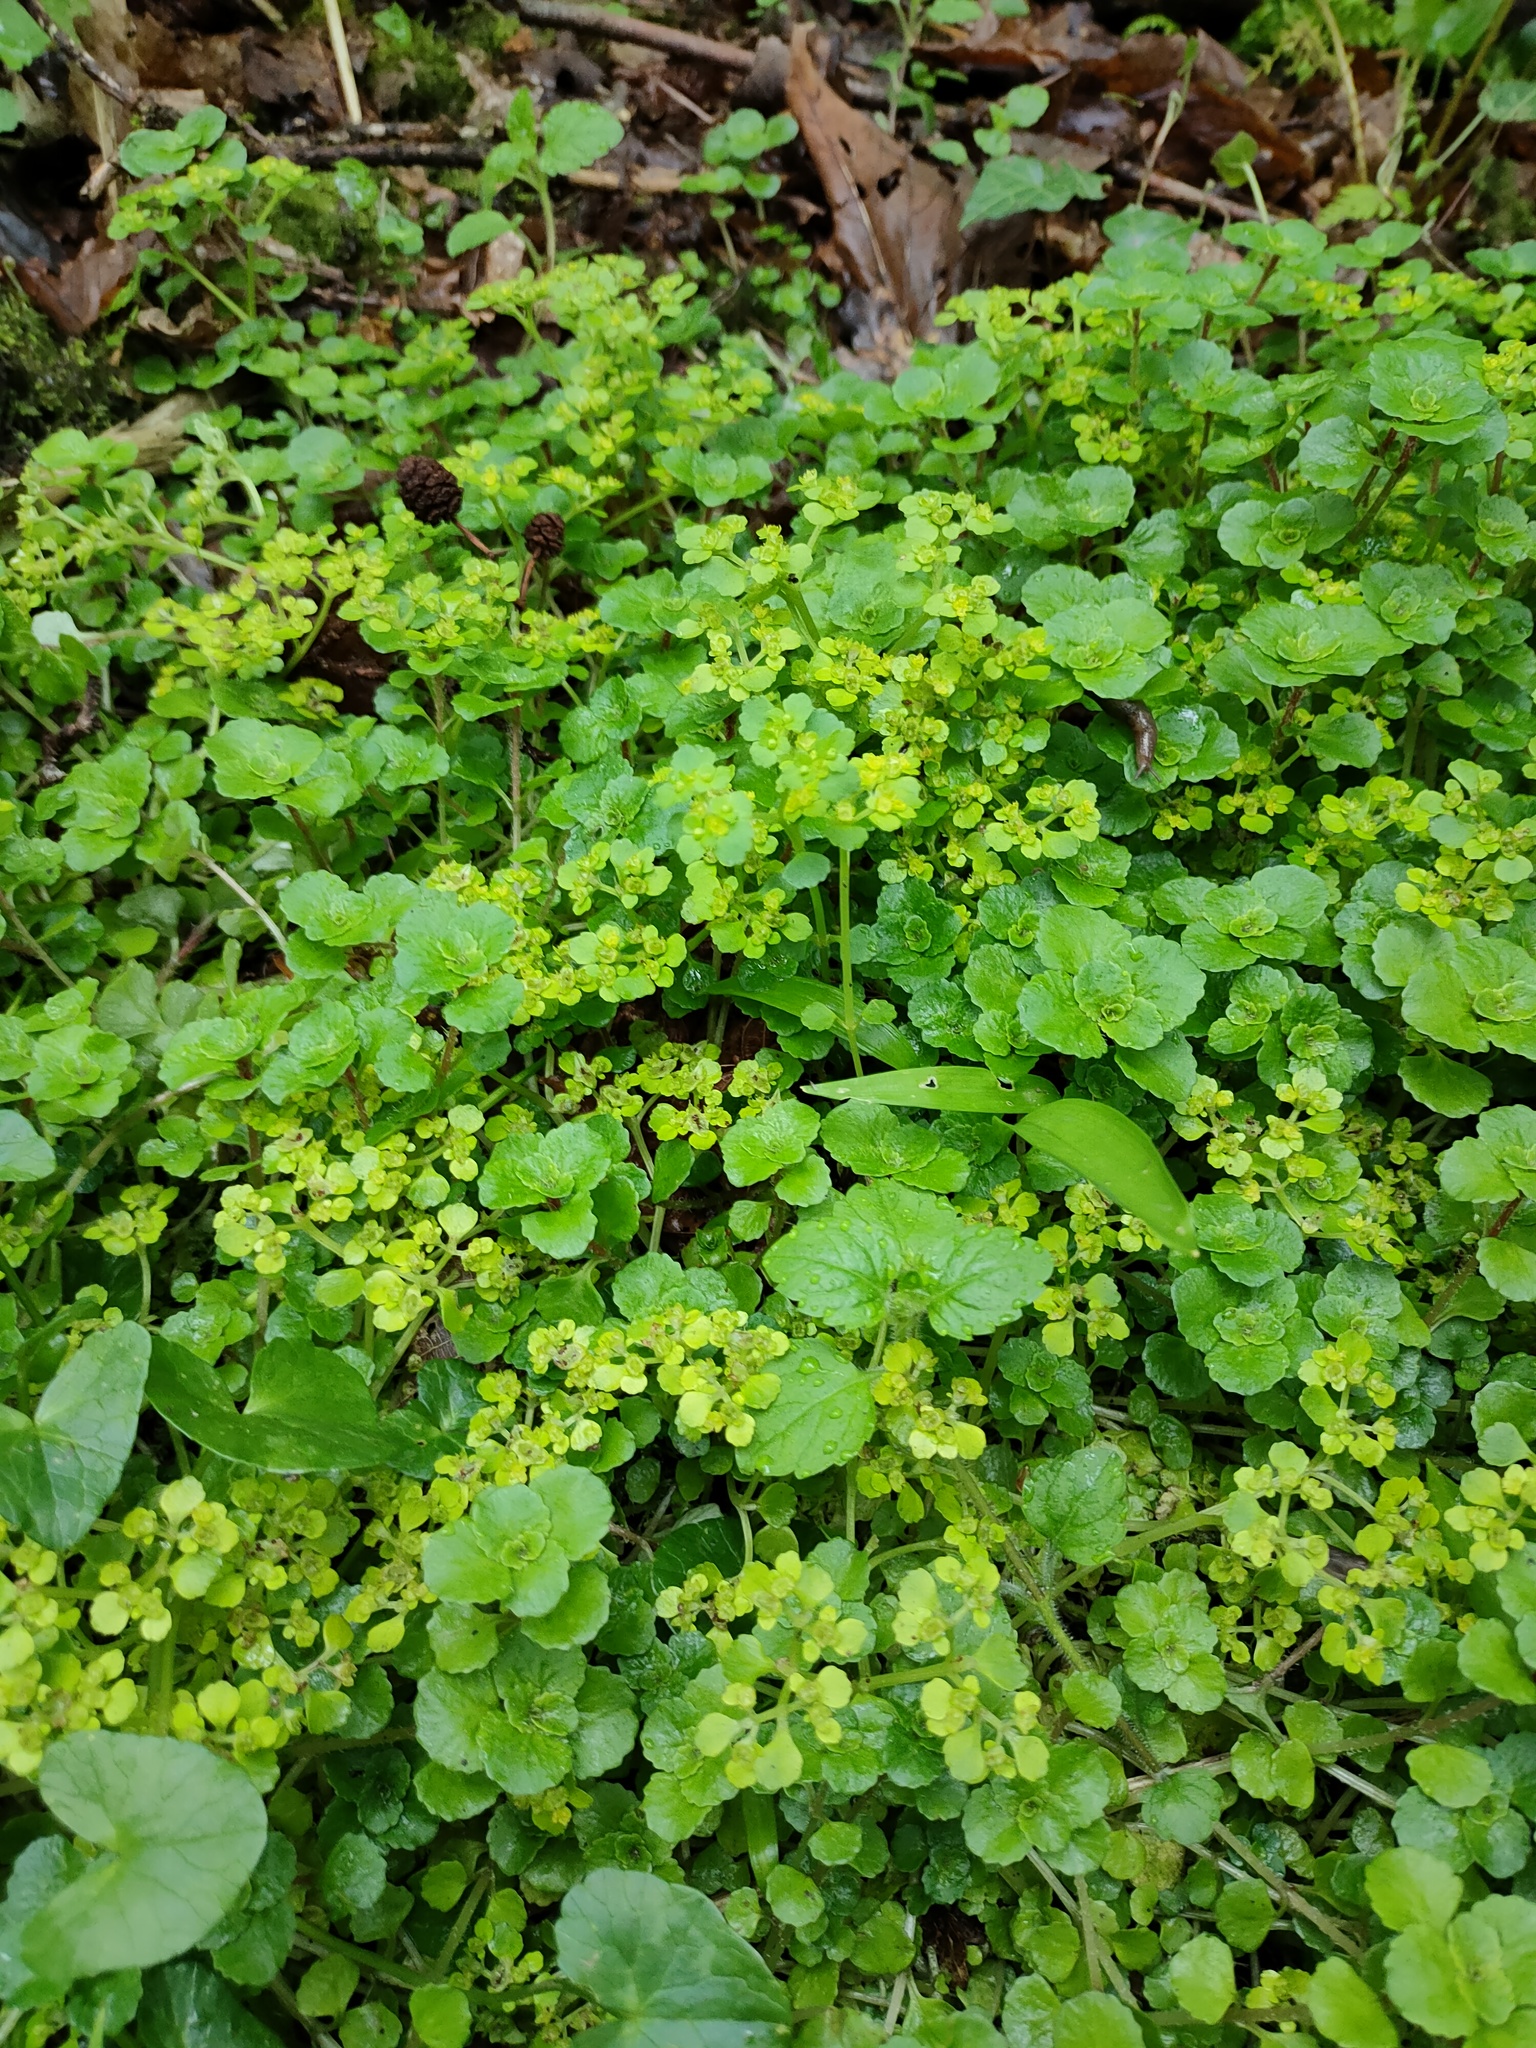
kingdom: Plantae
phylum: Tracheophyta
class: Magnoliopsida
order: Saxifragales
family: Saxifragaceae
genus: Chrysosplenium
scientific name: Chrysosplenium oppositifolium
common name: Opposite-leaved golden-saxifrage
